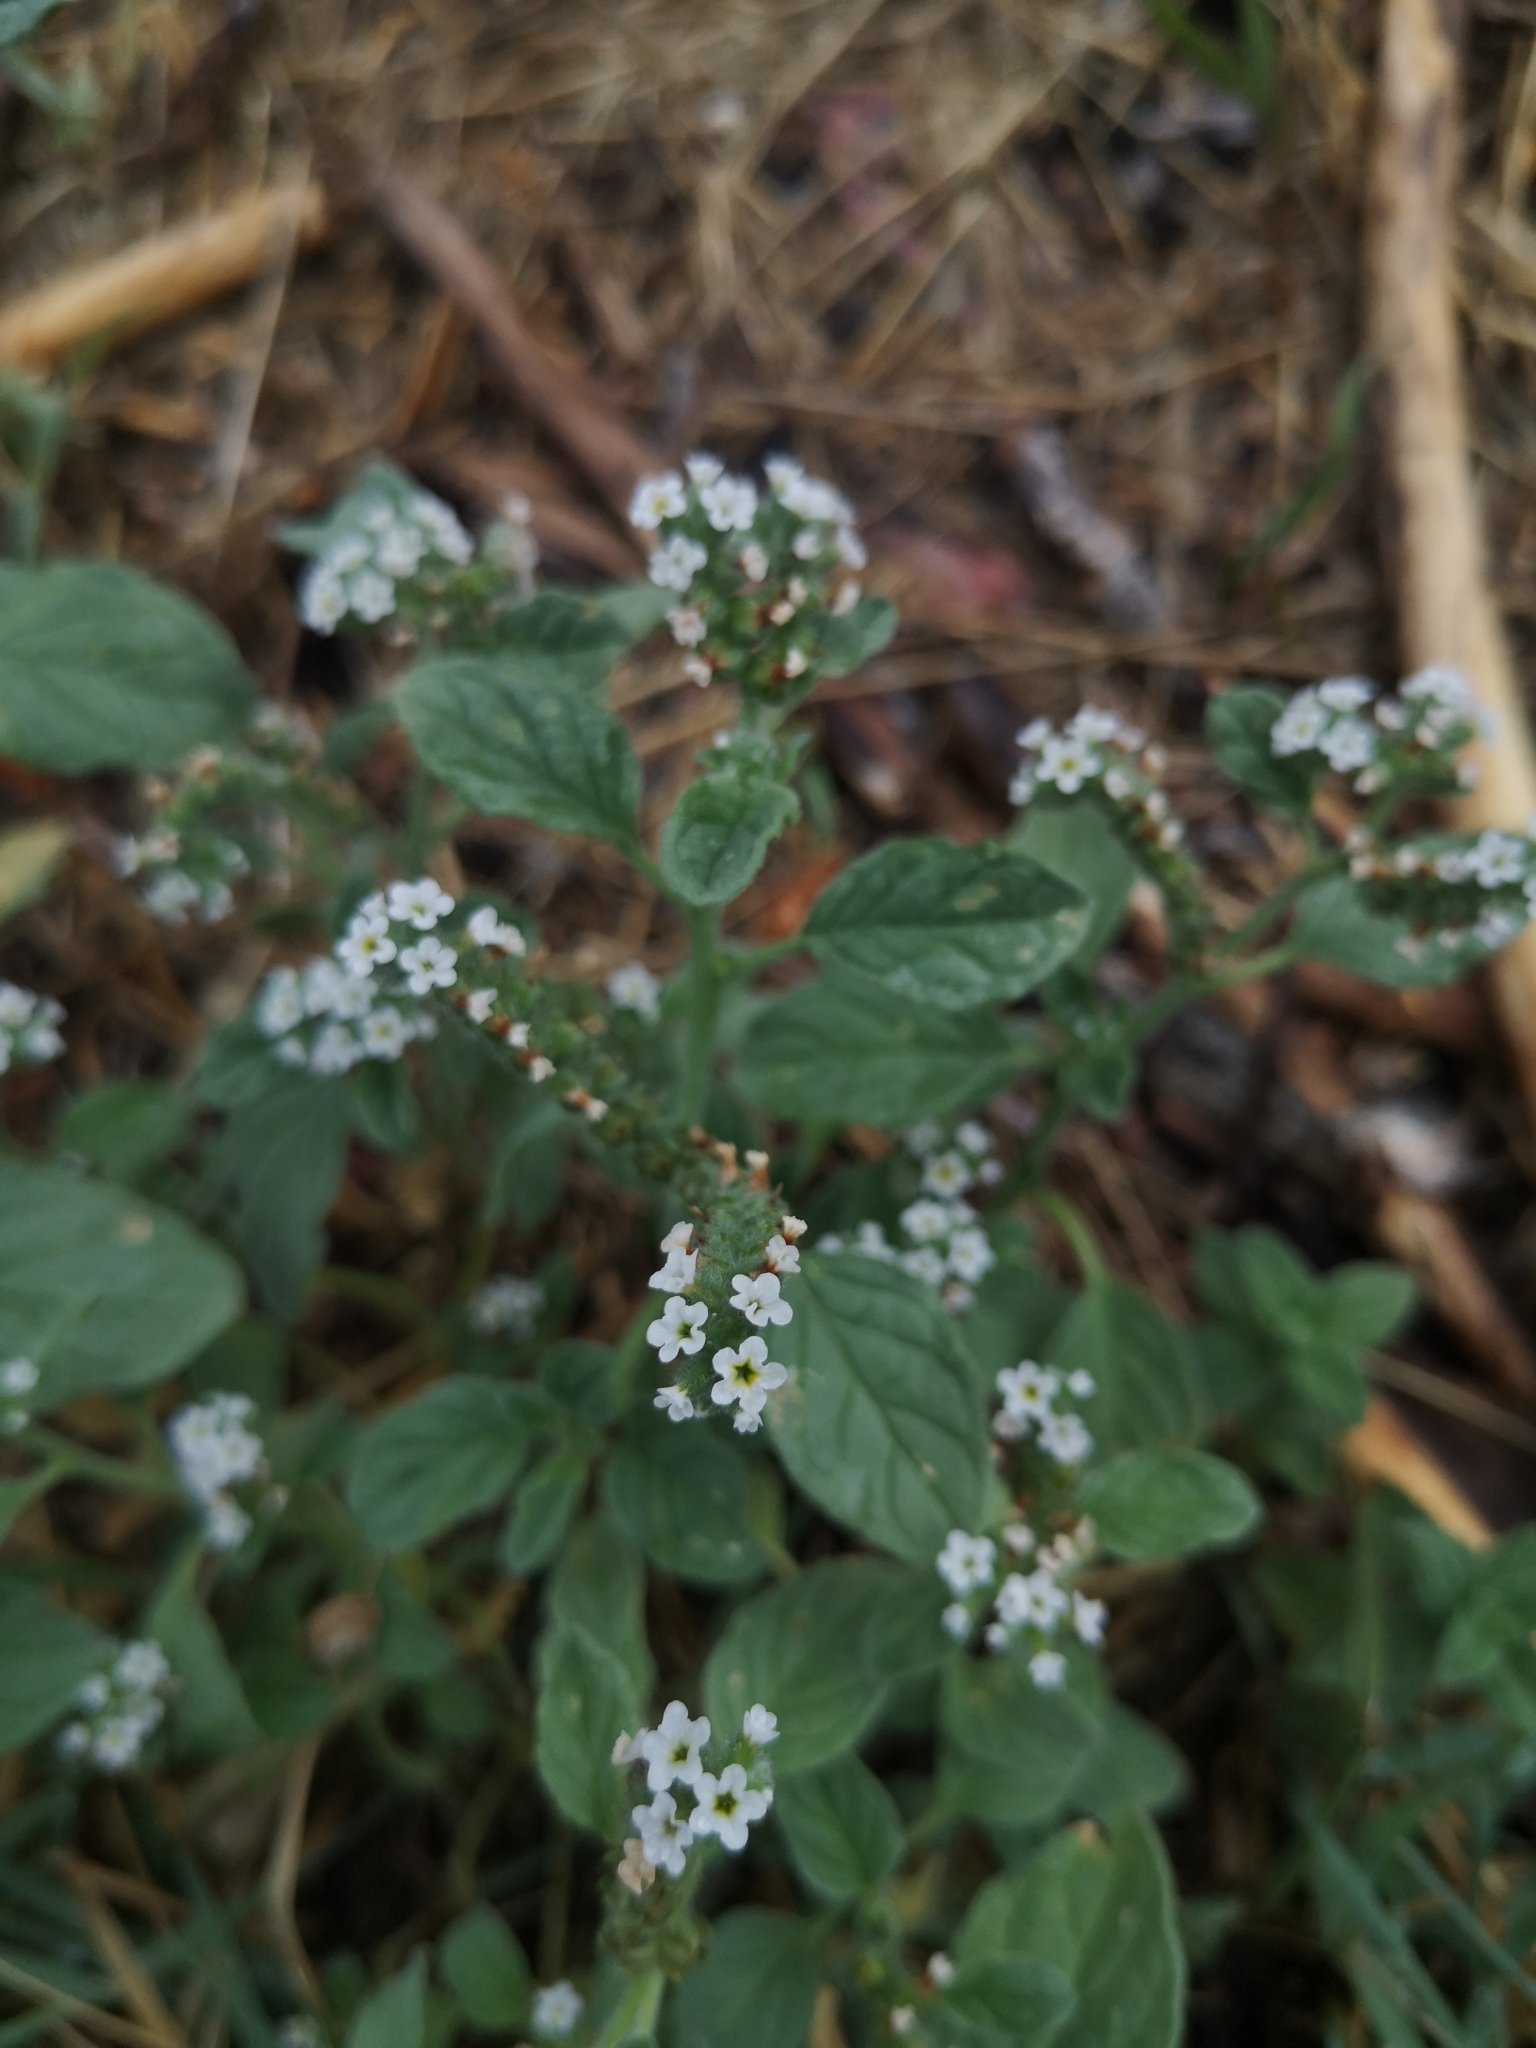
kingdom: Plantae
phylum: Tracheophyta
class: Magnoliopsida
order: Boraginales
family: Heliotropiaceae
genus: Heliotropium
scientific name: Heliotropium europaeum
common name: European heliotrope
